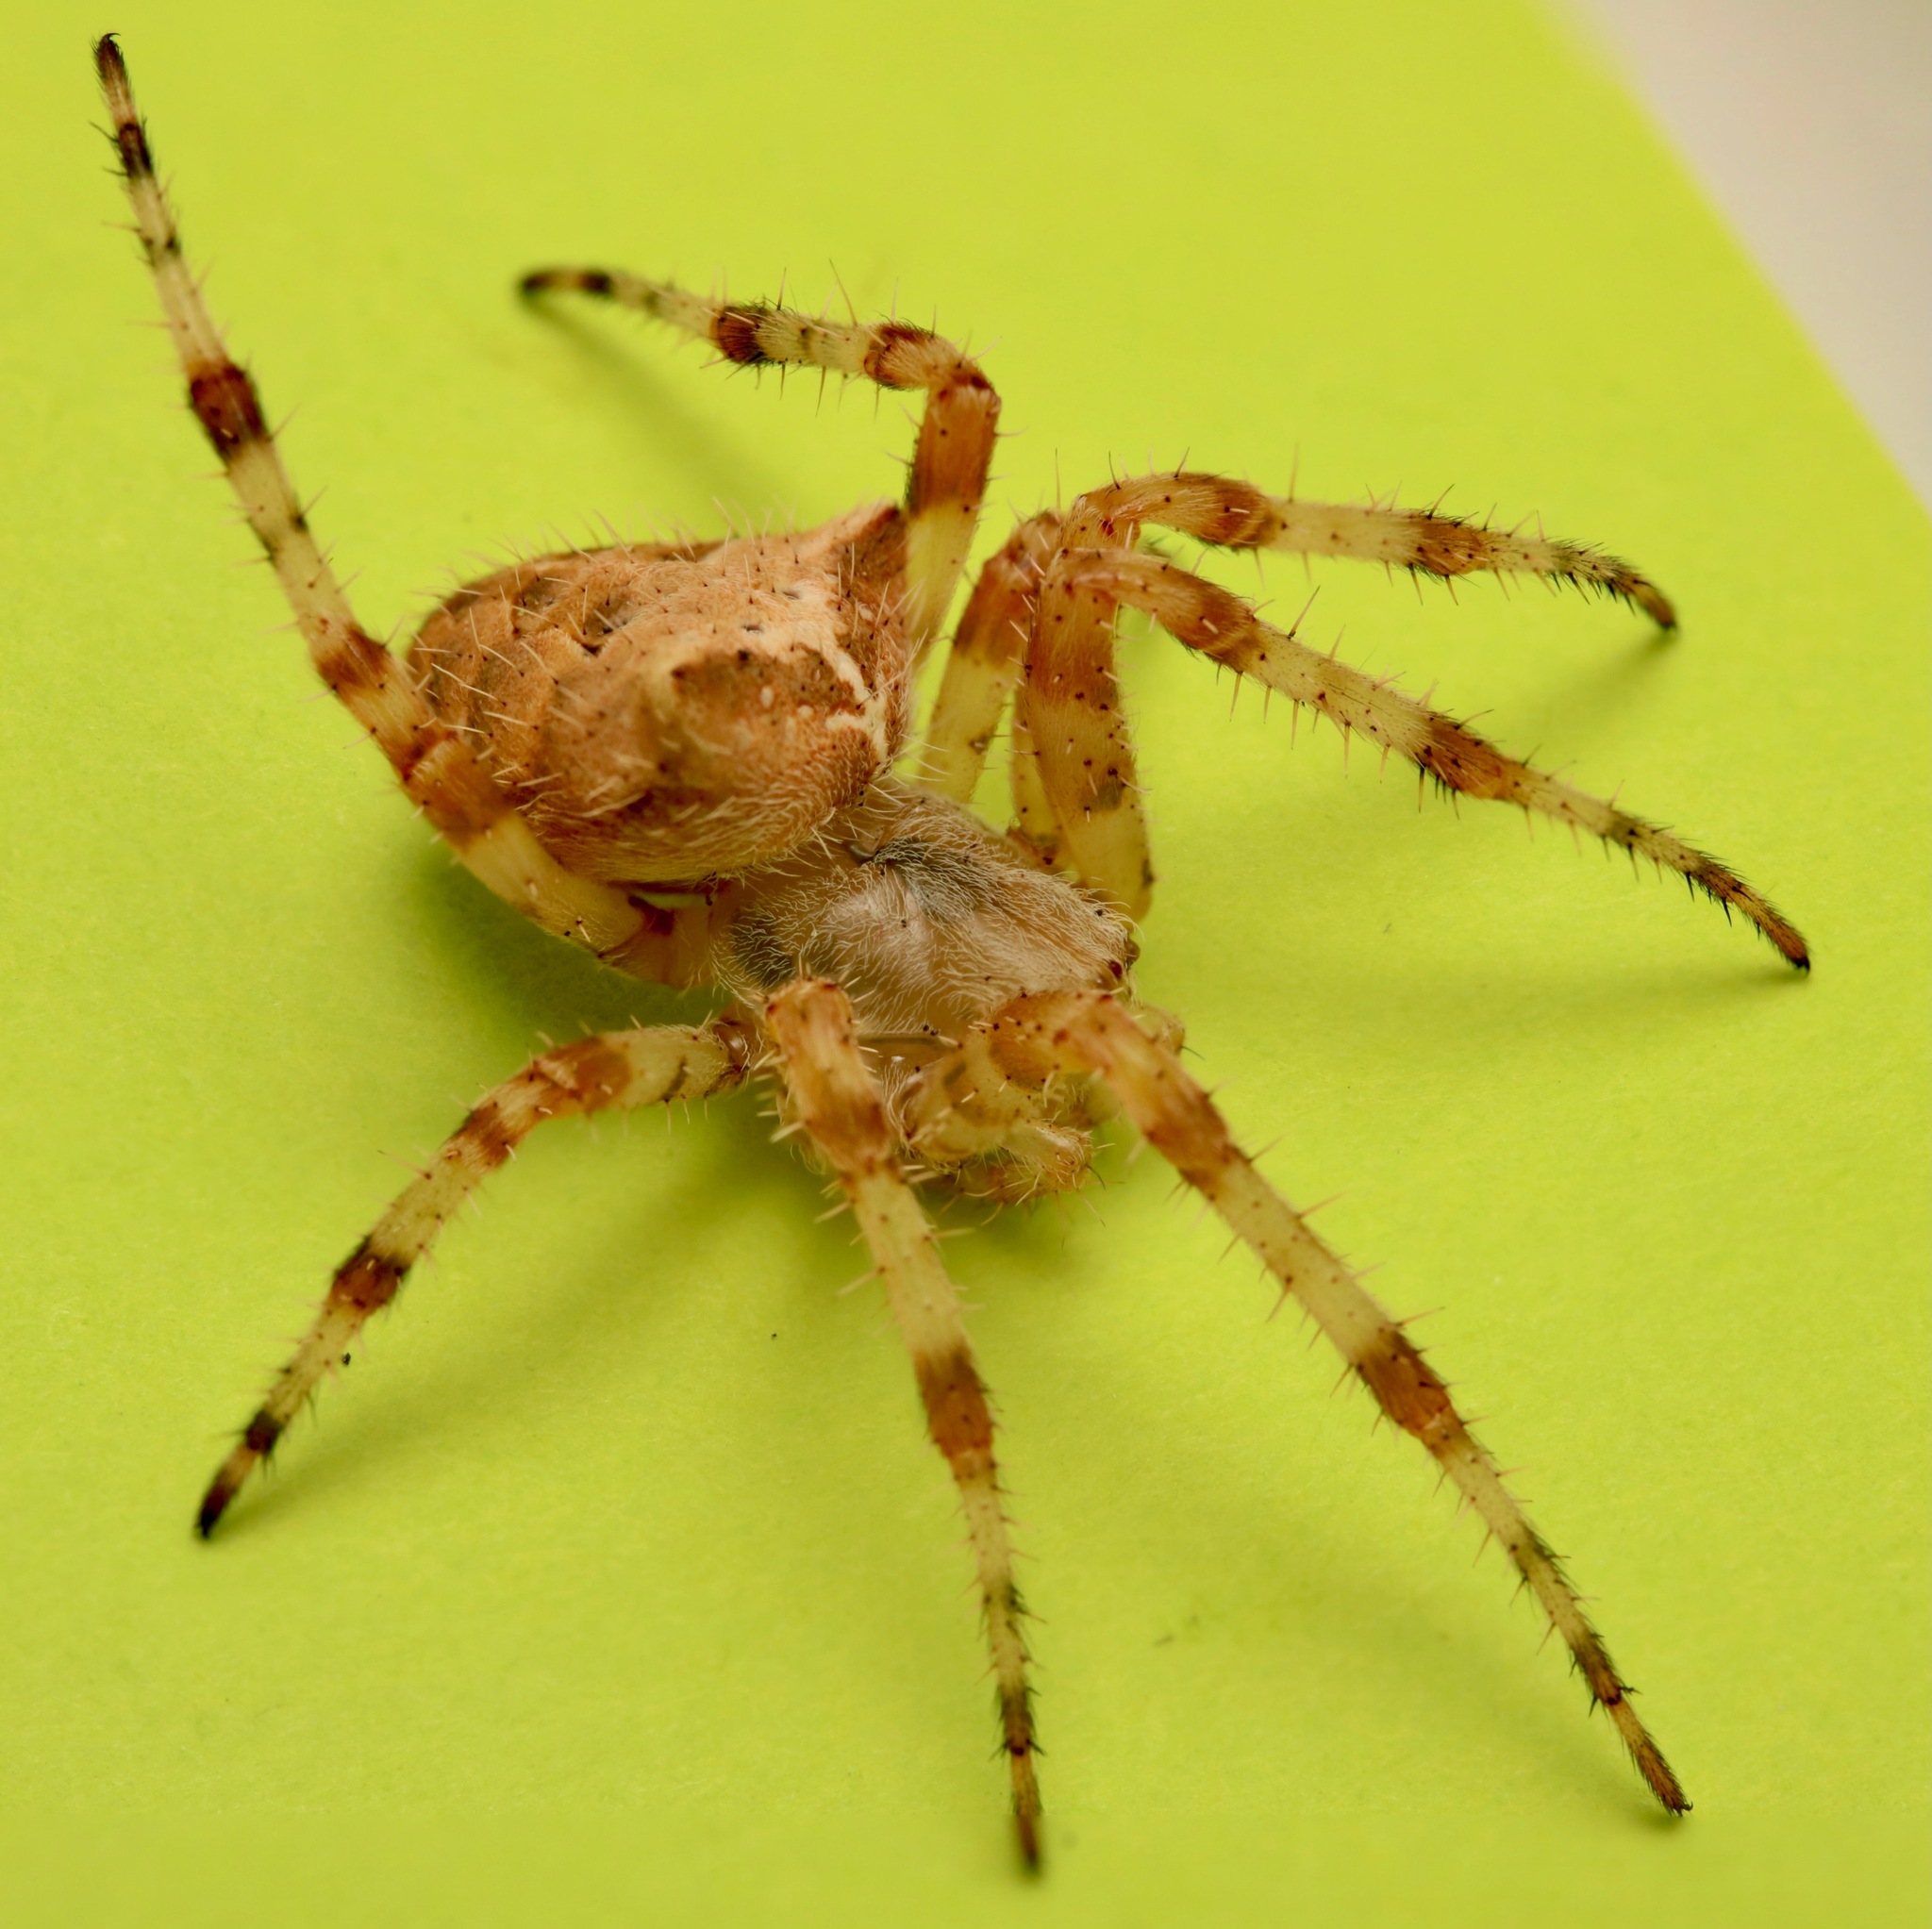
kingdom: Animalia
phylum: Arthropoda
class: Arachnida
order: Araneae
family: Araneidae
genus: Araneus
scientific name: Araneus gemmoides
